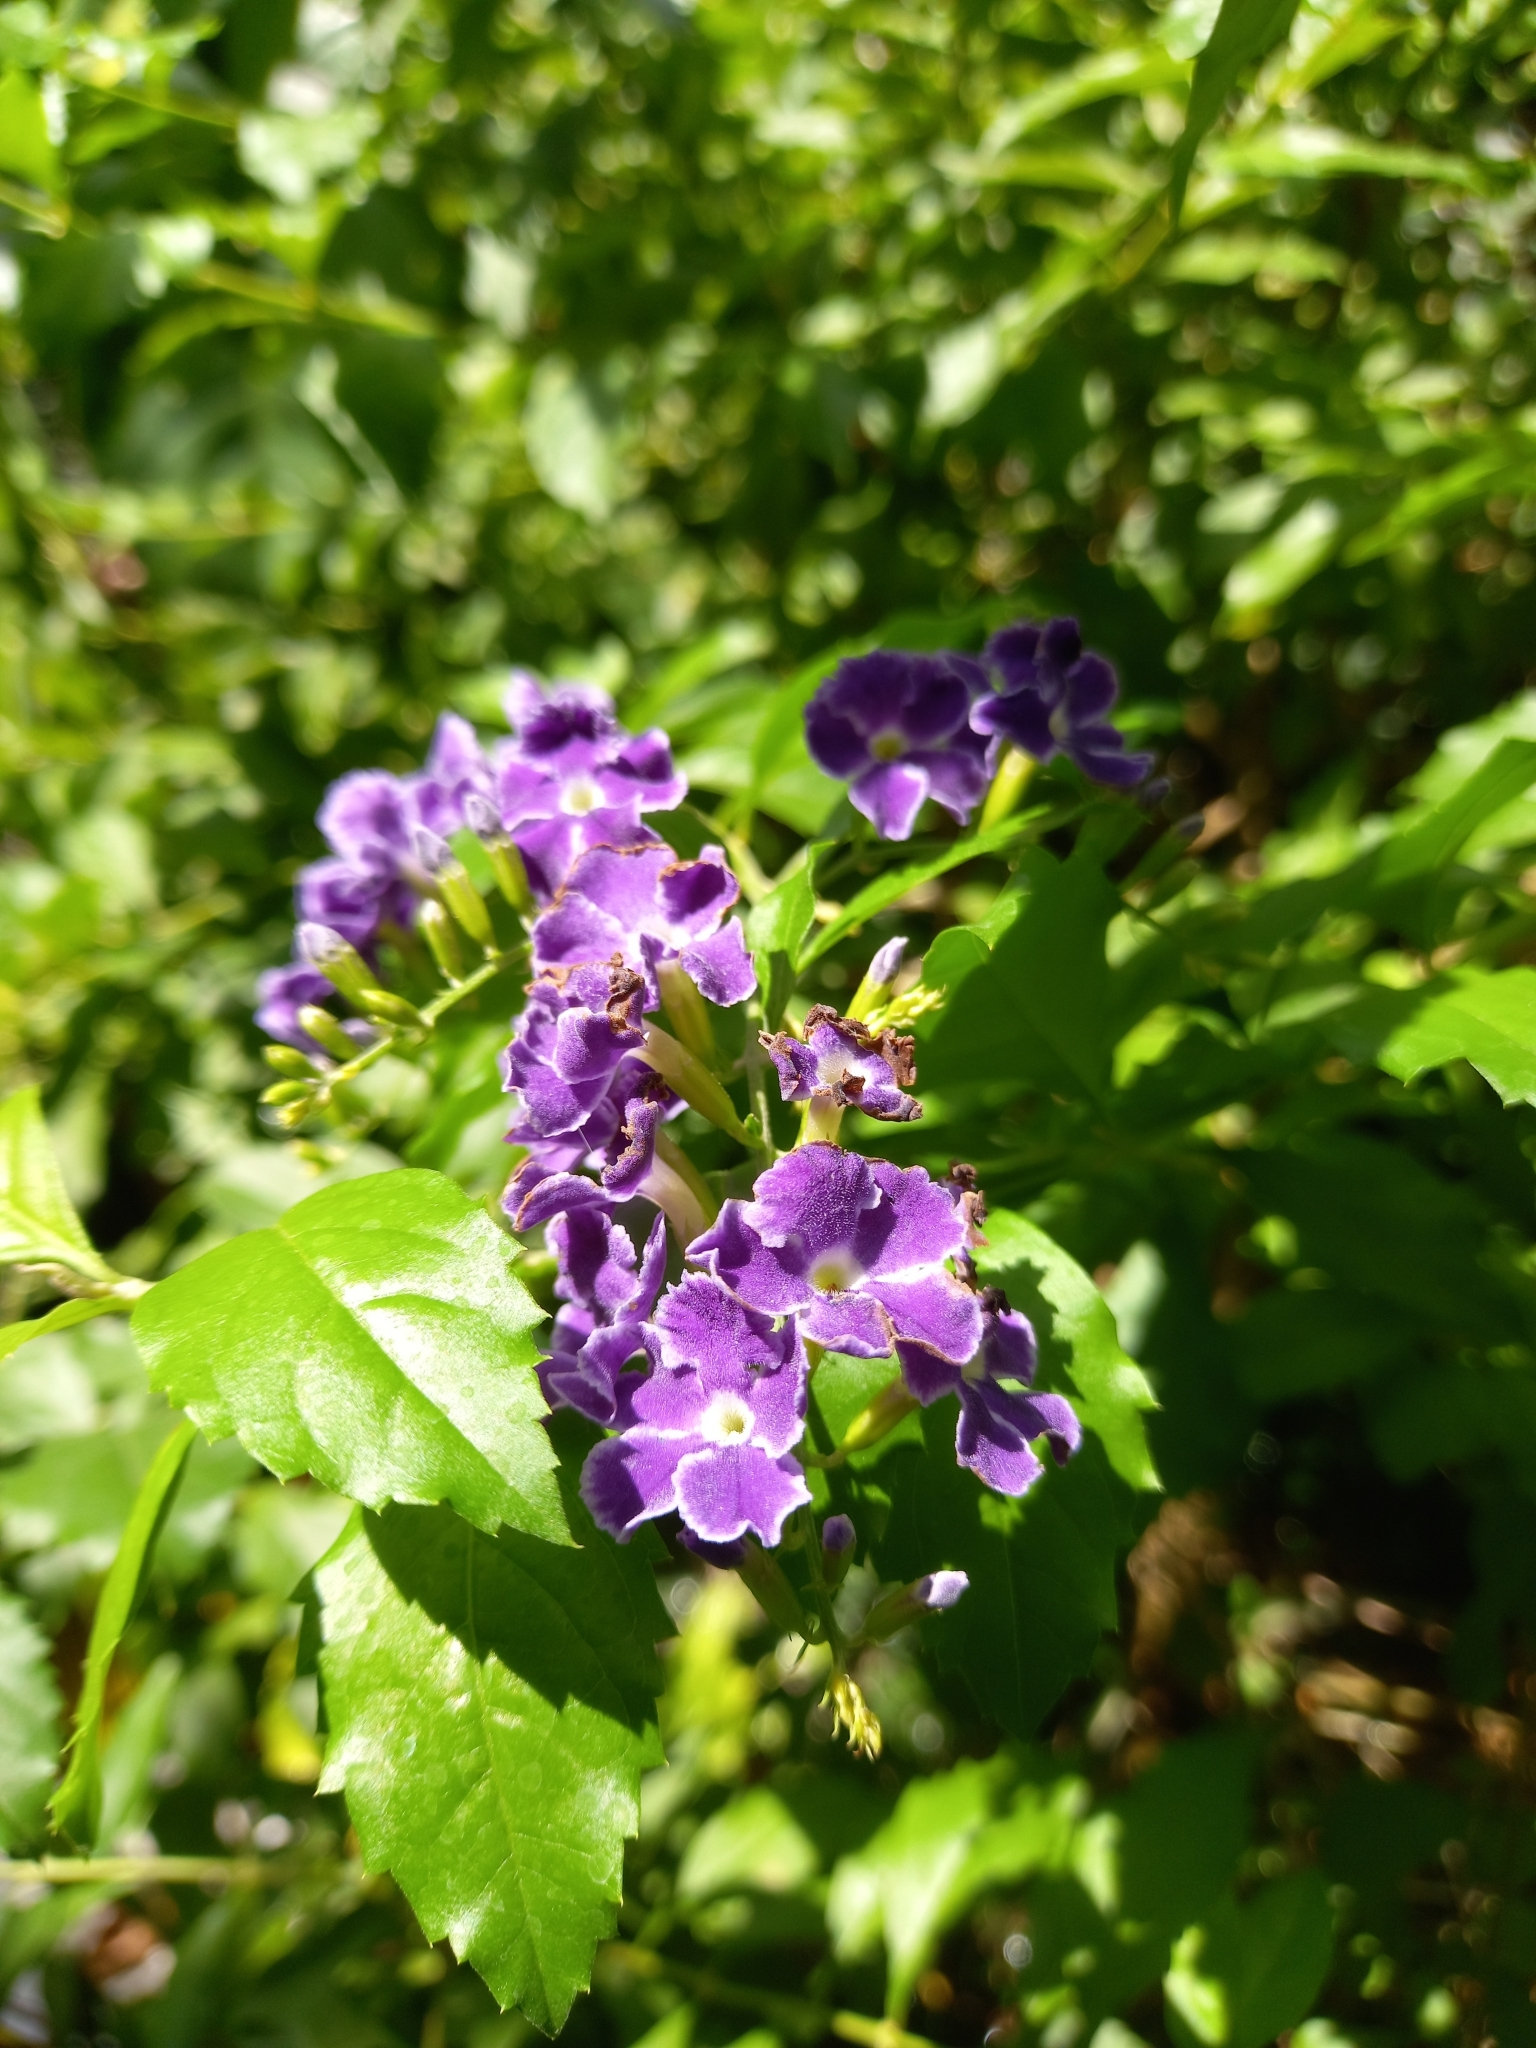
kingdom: Plantae
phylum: Tracheophyta
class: Magnoliopsida
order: Lamiales
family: Verbenaceae
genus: Duranta
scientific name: Duranta erecta
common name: Golden dewdrops
